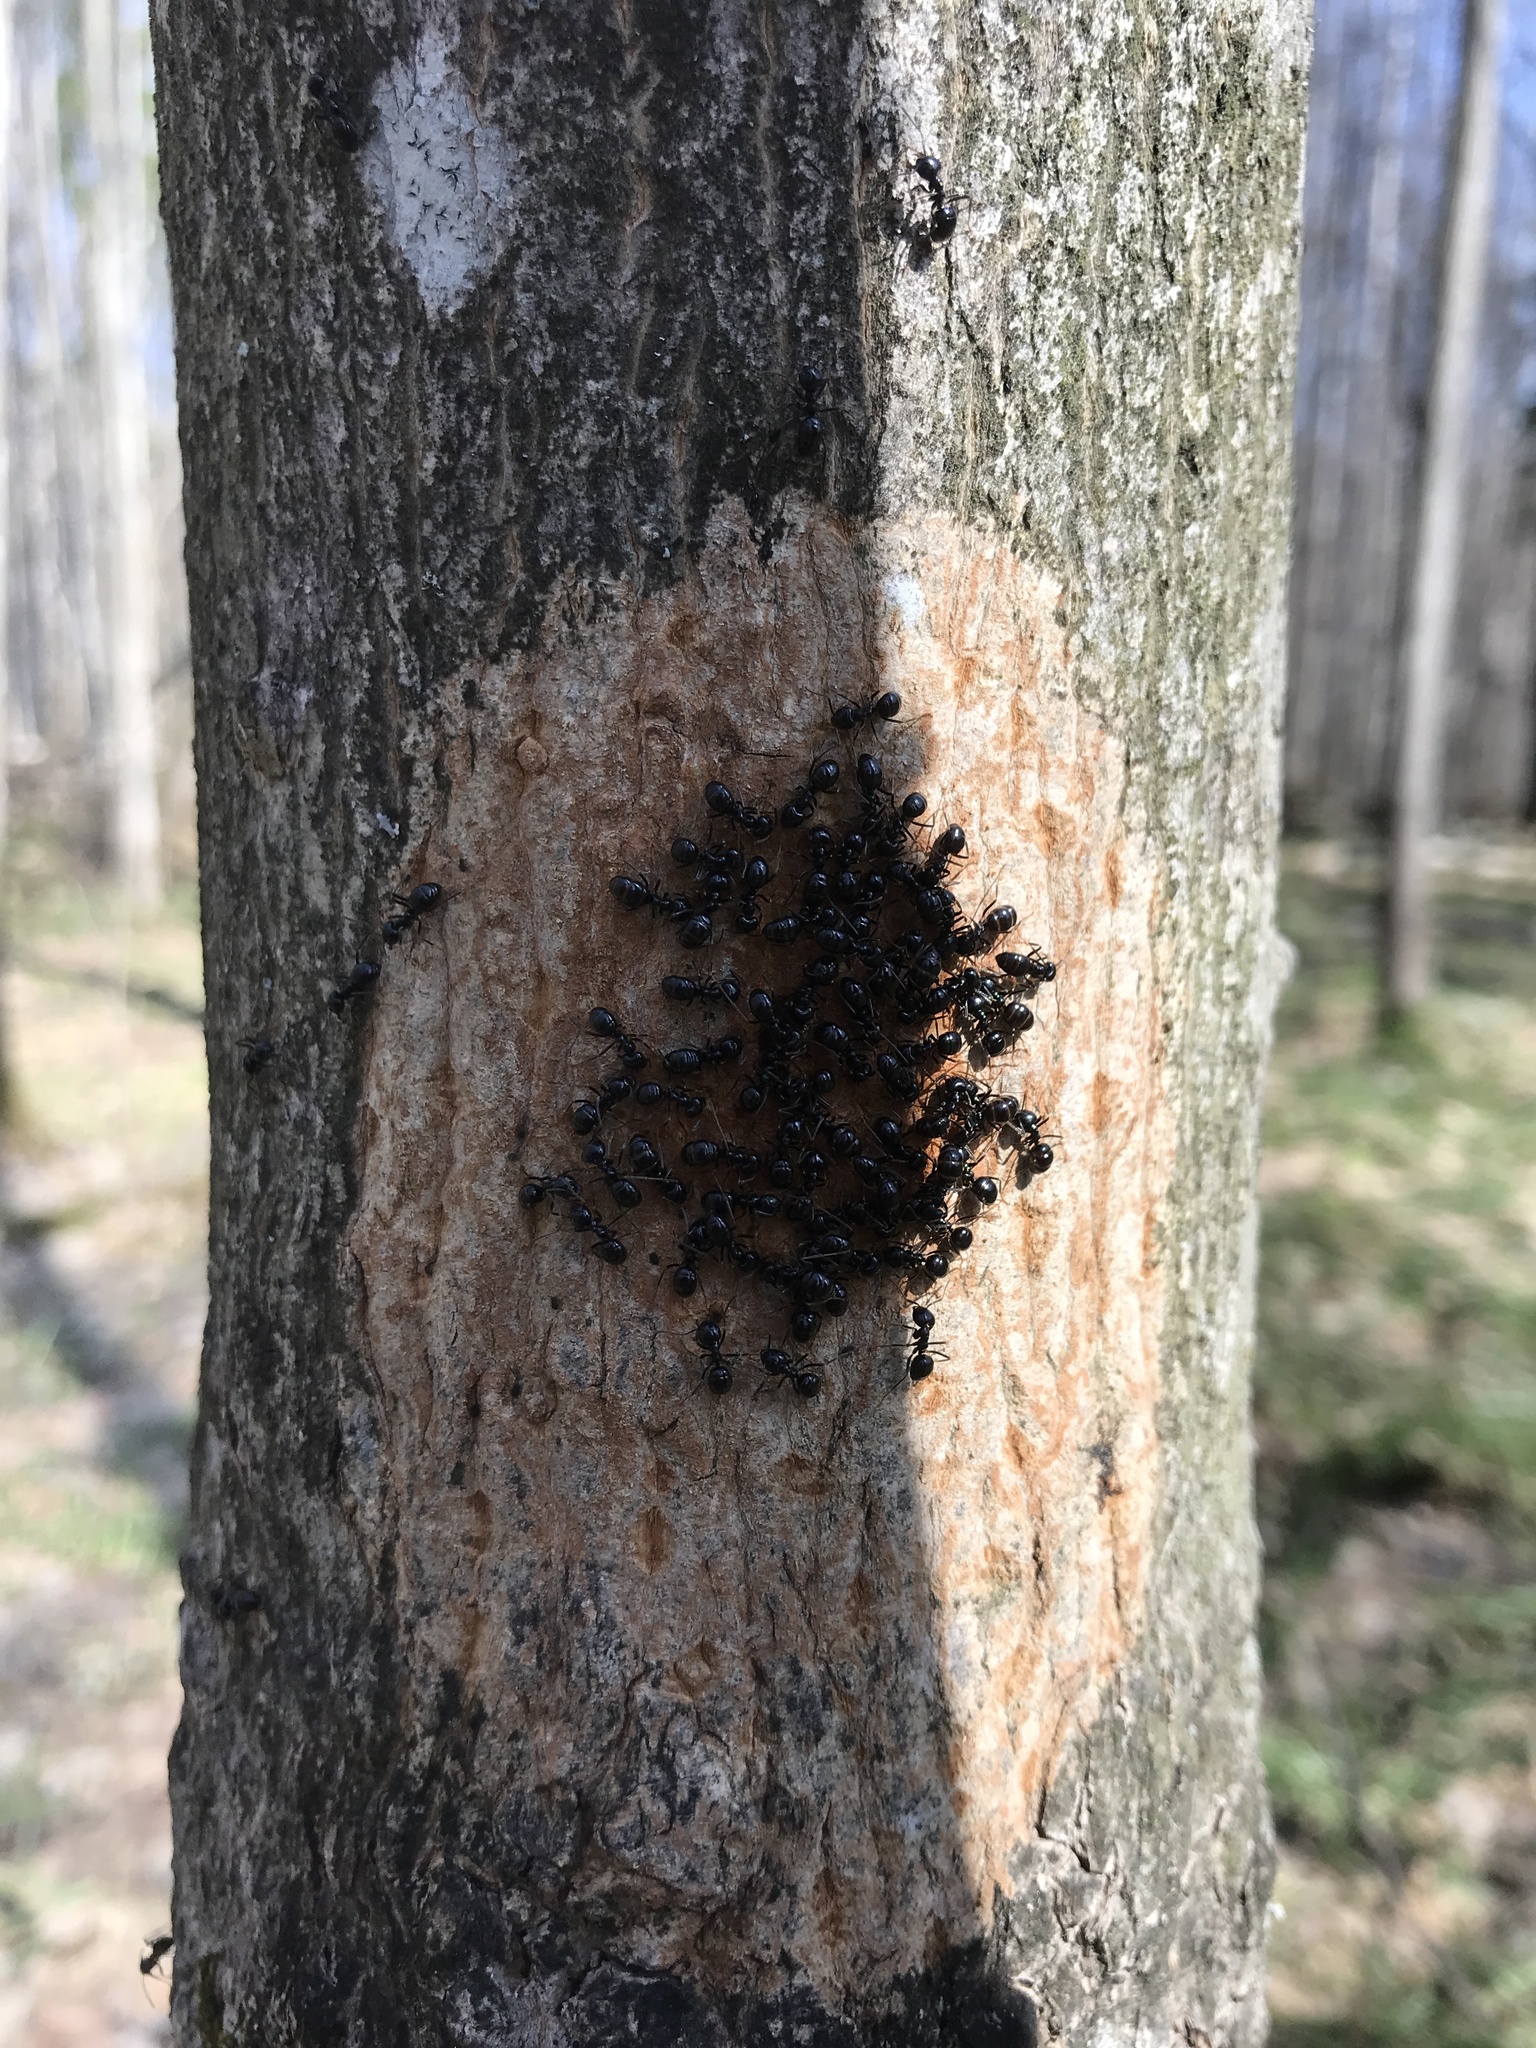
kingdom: Animalia
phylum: Arthropoda
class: Insecta
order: Hymenoptera
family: Formicidae
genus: Lasius
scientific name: Lasius fuliginosus
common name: Jet ant
